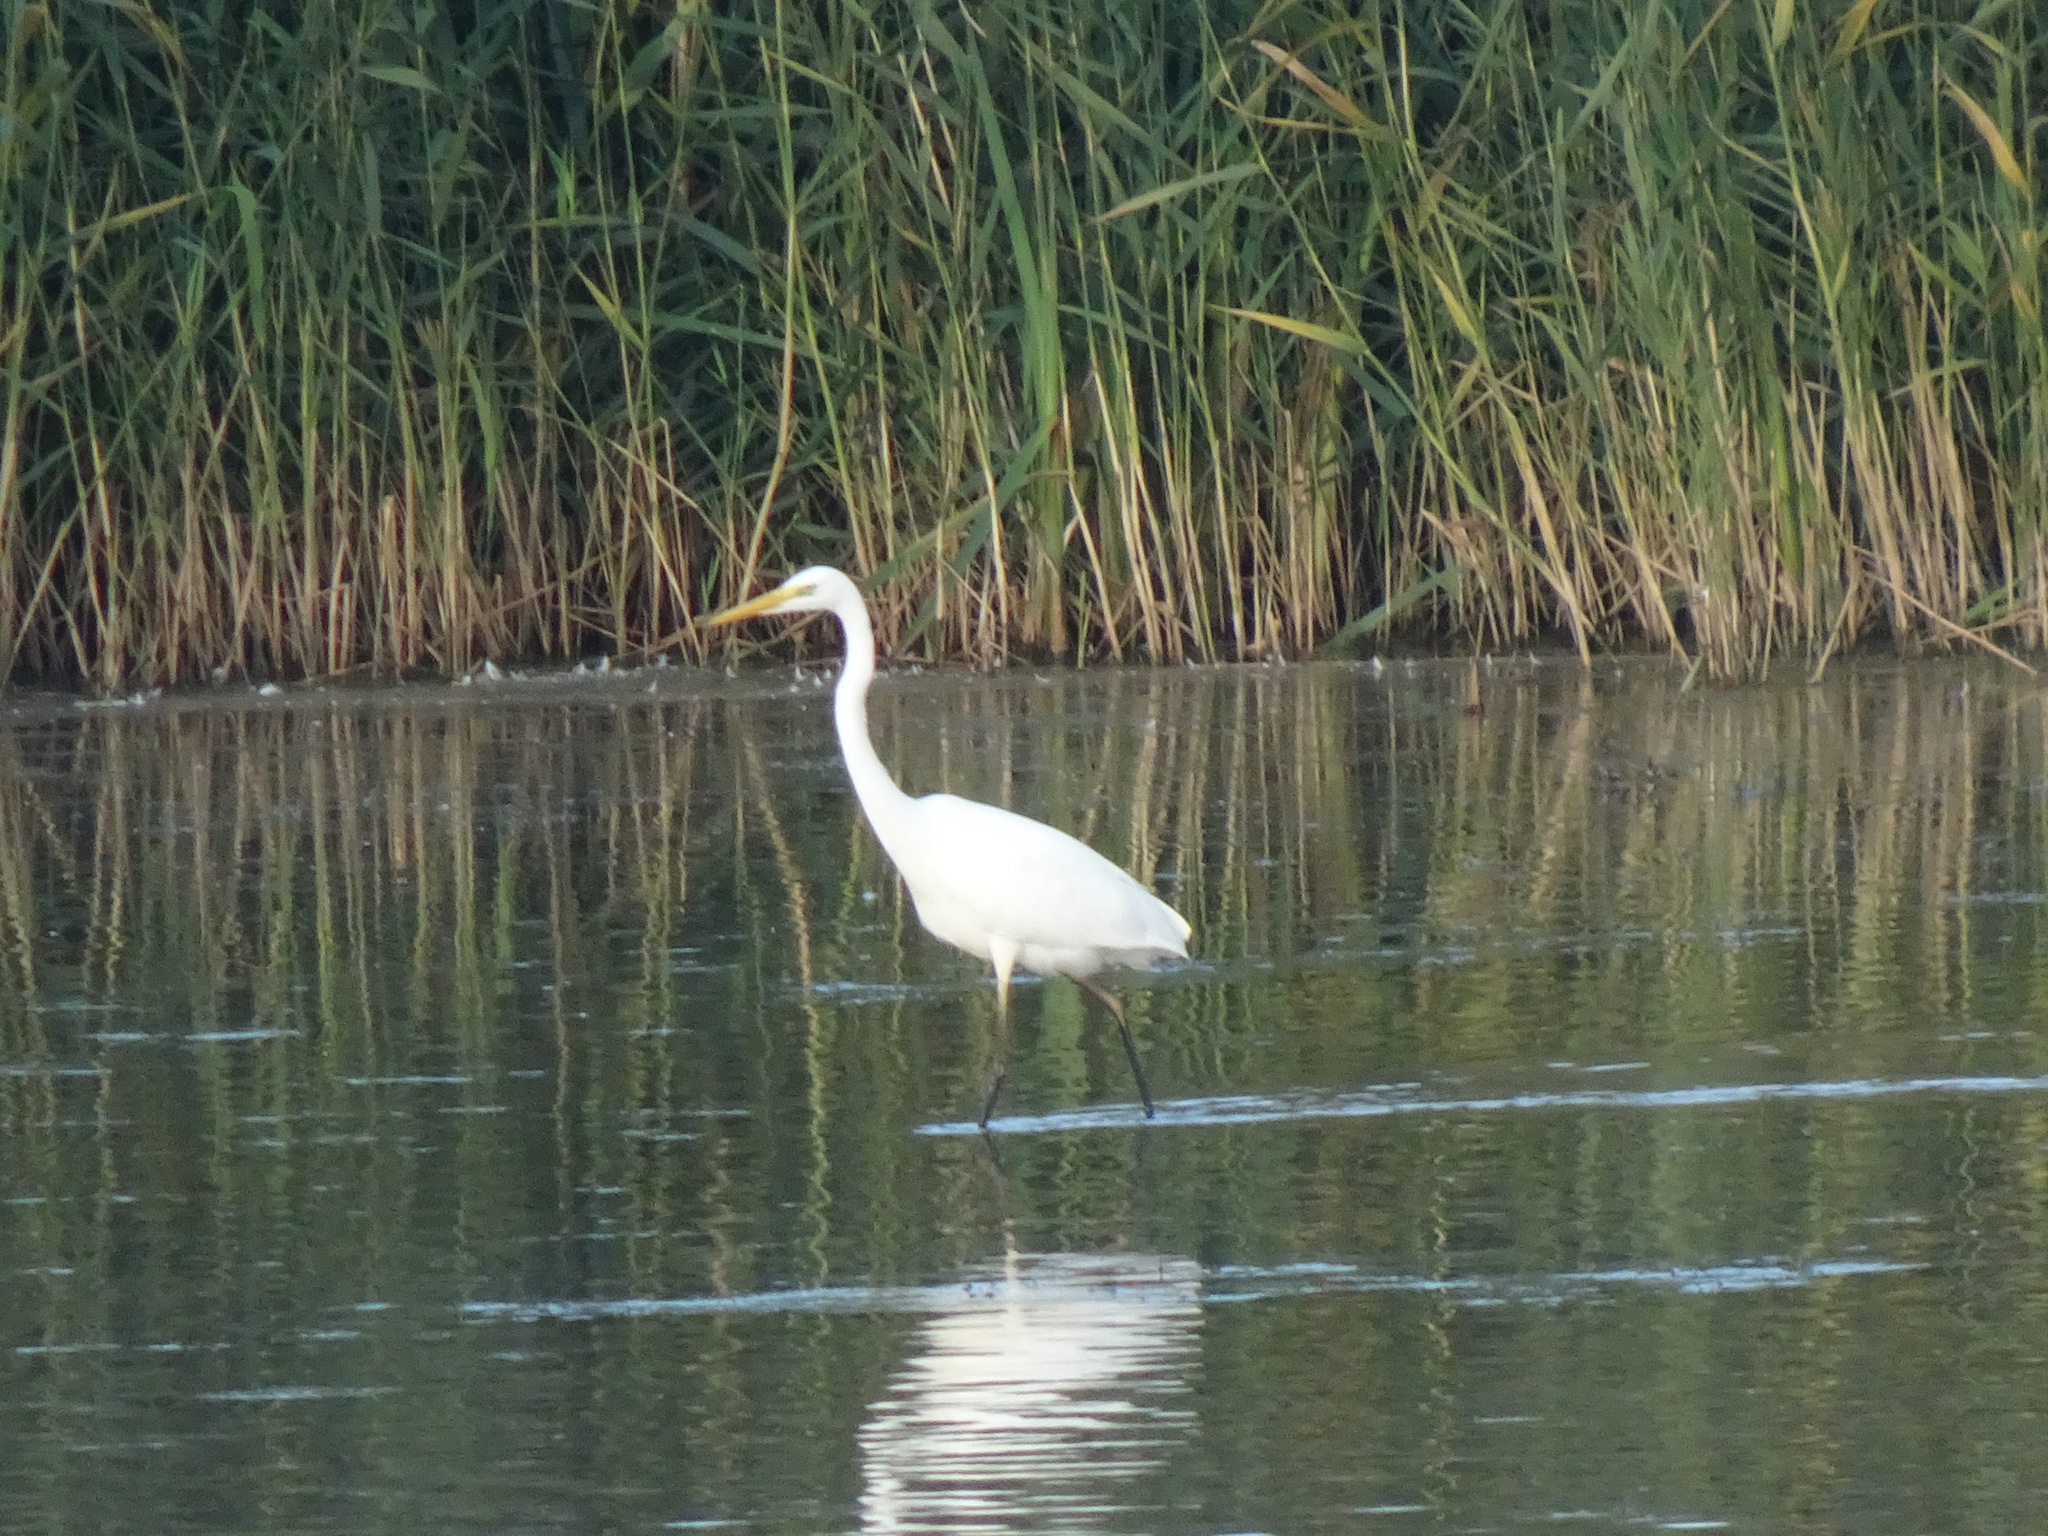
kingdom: Animalia
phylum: Chordata
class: Aves
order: Pelecaniformes
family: Ardeidae
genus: Ardea
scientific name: Ardea alba
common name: Great egret
